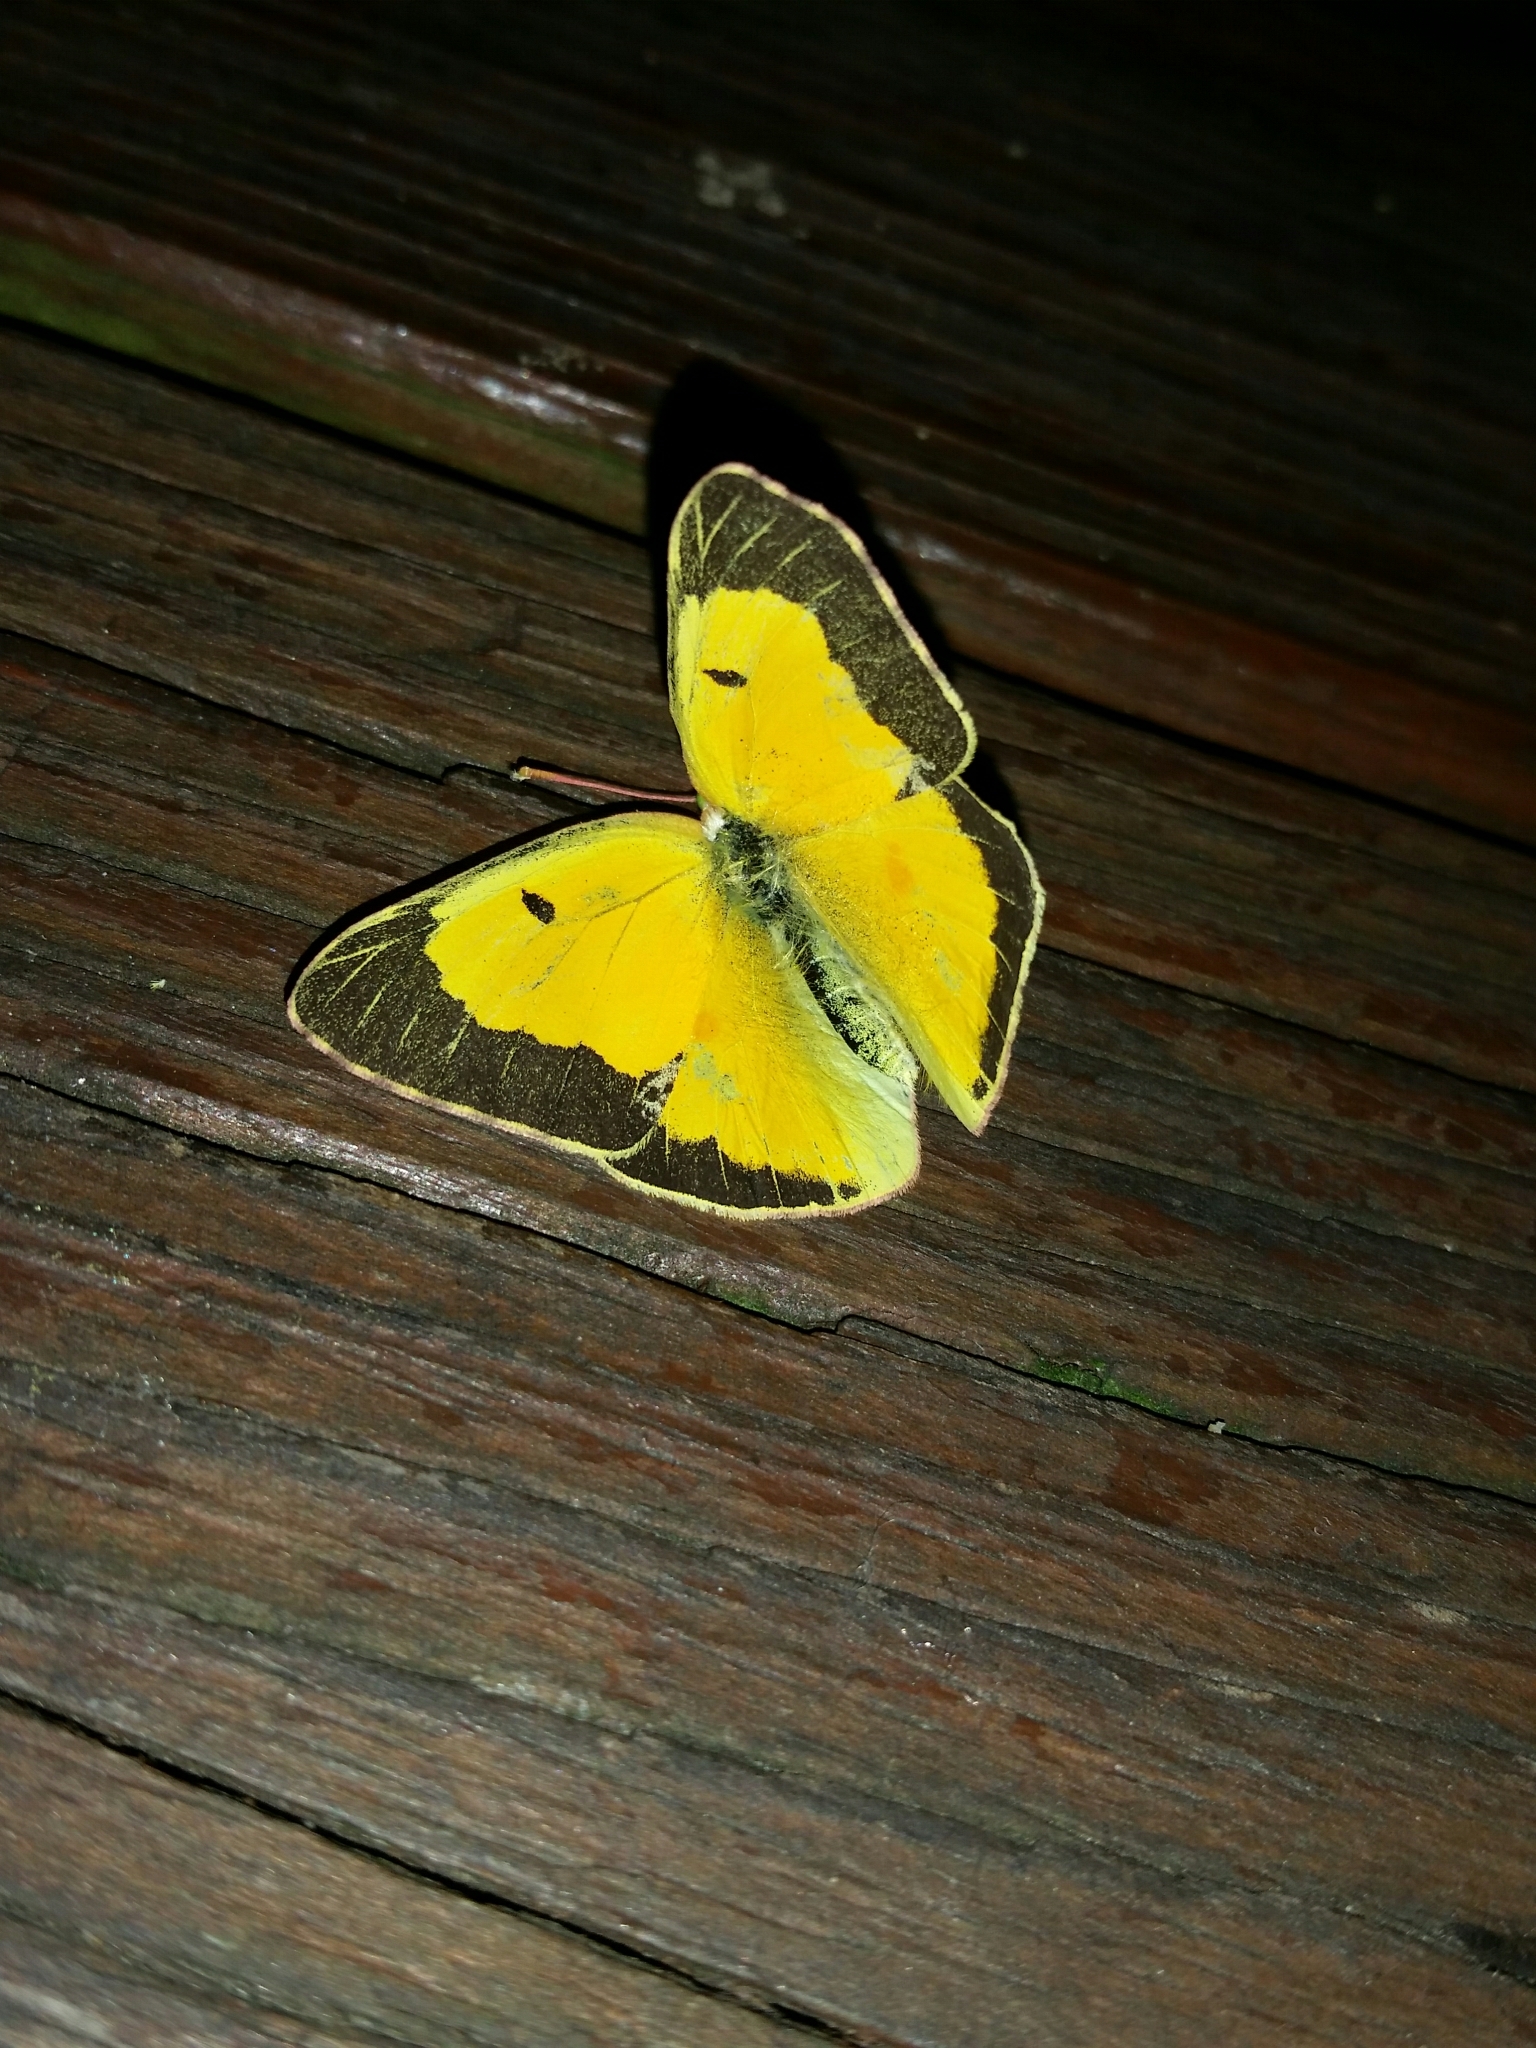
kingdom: Animalia
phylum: Arthropoda
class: Insecta
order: Lepidoptera
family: Pieridae
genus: Colias
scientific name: Colias eurytheme
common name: Alfalfa butterfly
